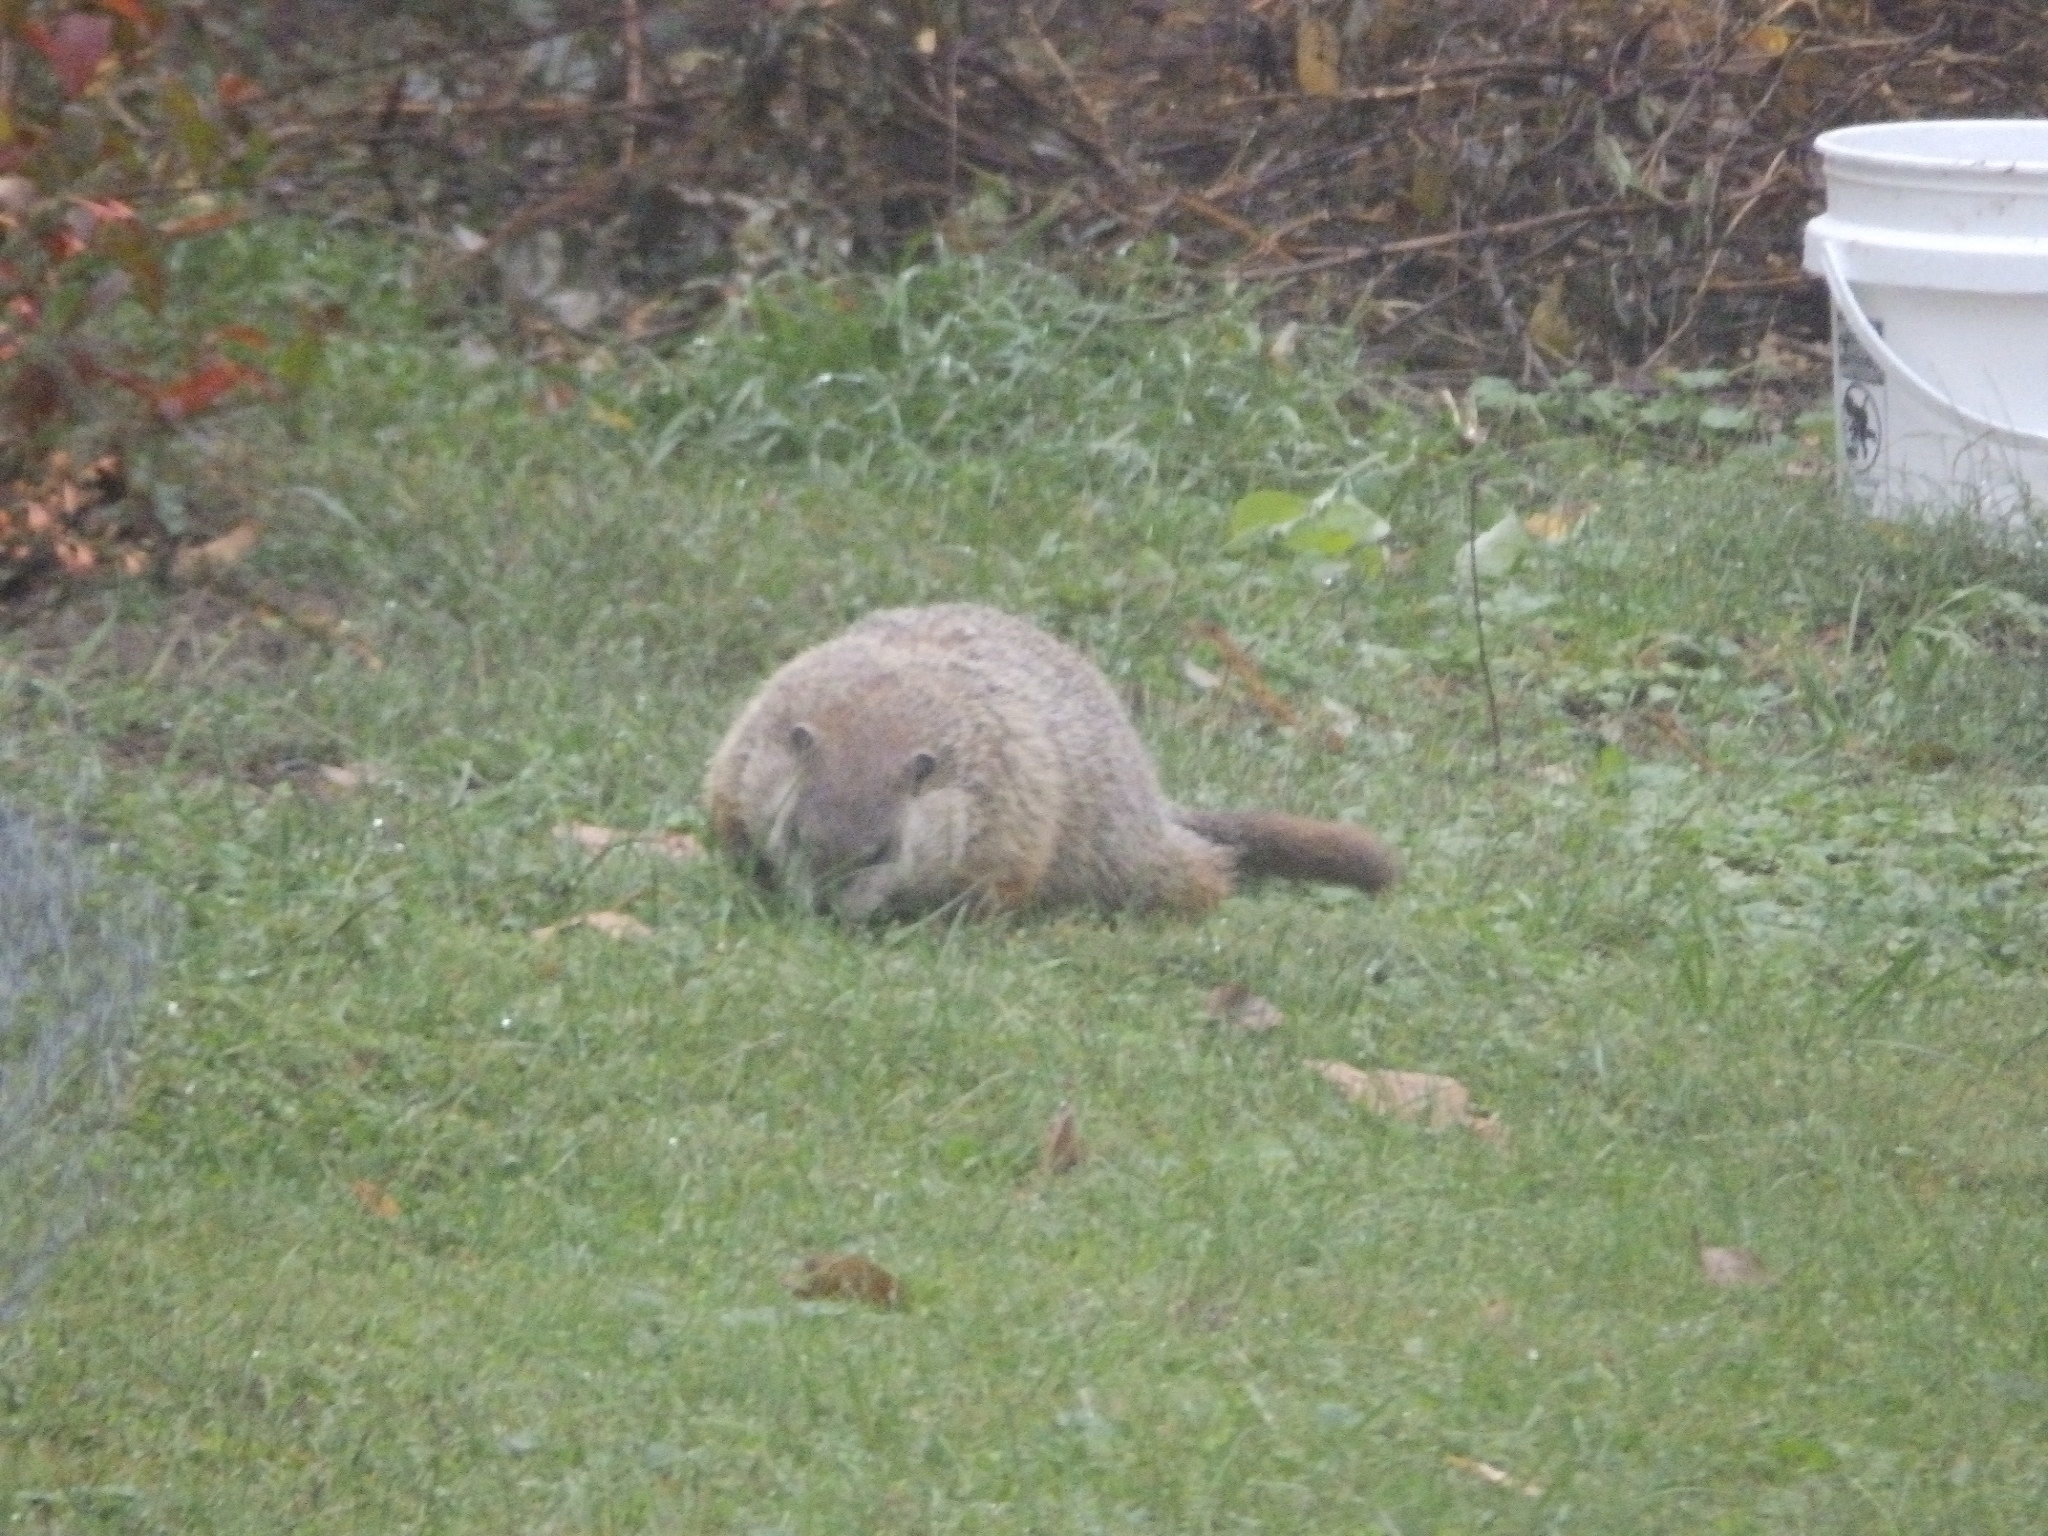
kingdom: Animalia
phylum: Chordata
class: Mammalia
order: Rodentia
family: Sciuridae
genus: Marmota
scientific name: Marmota monax
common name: Groundhog
